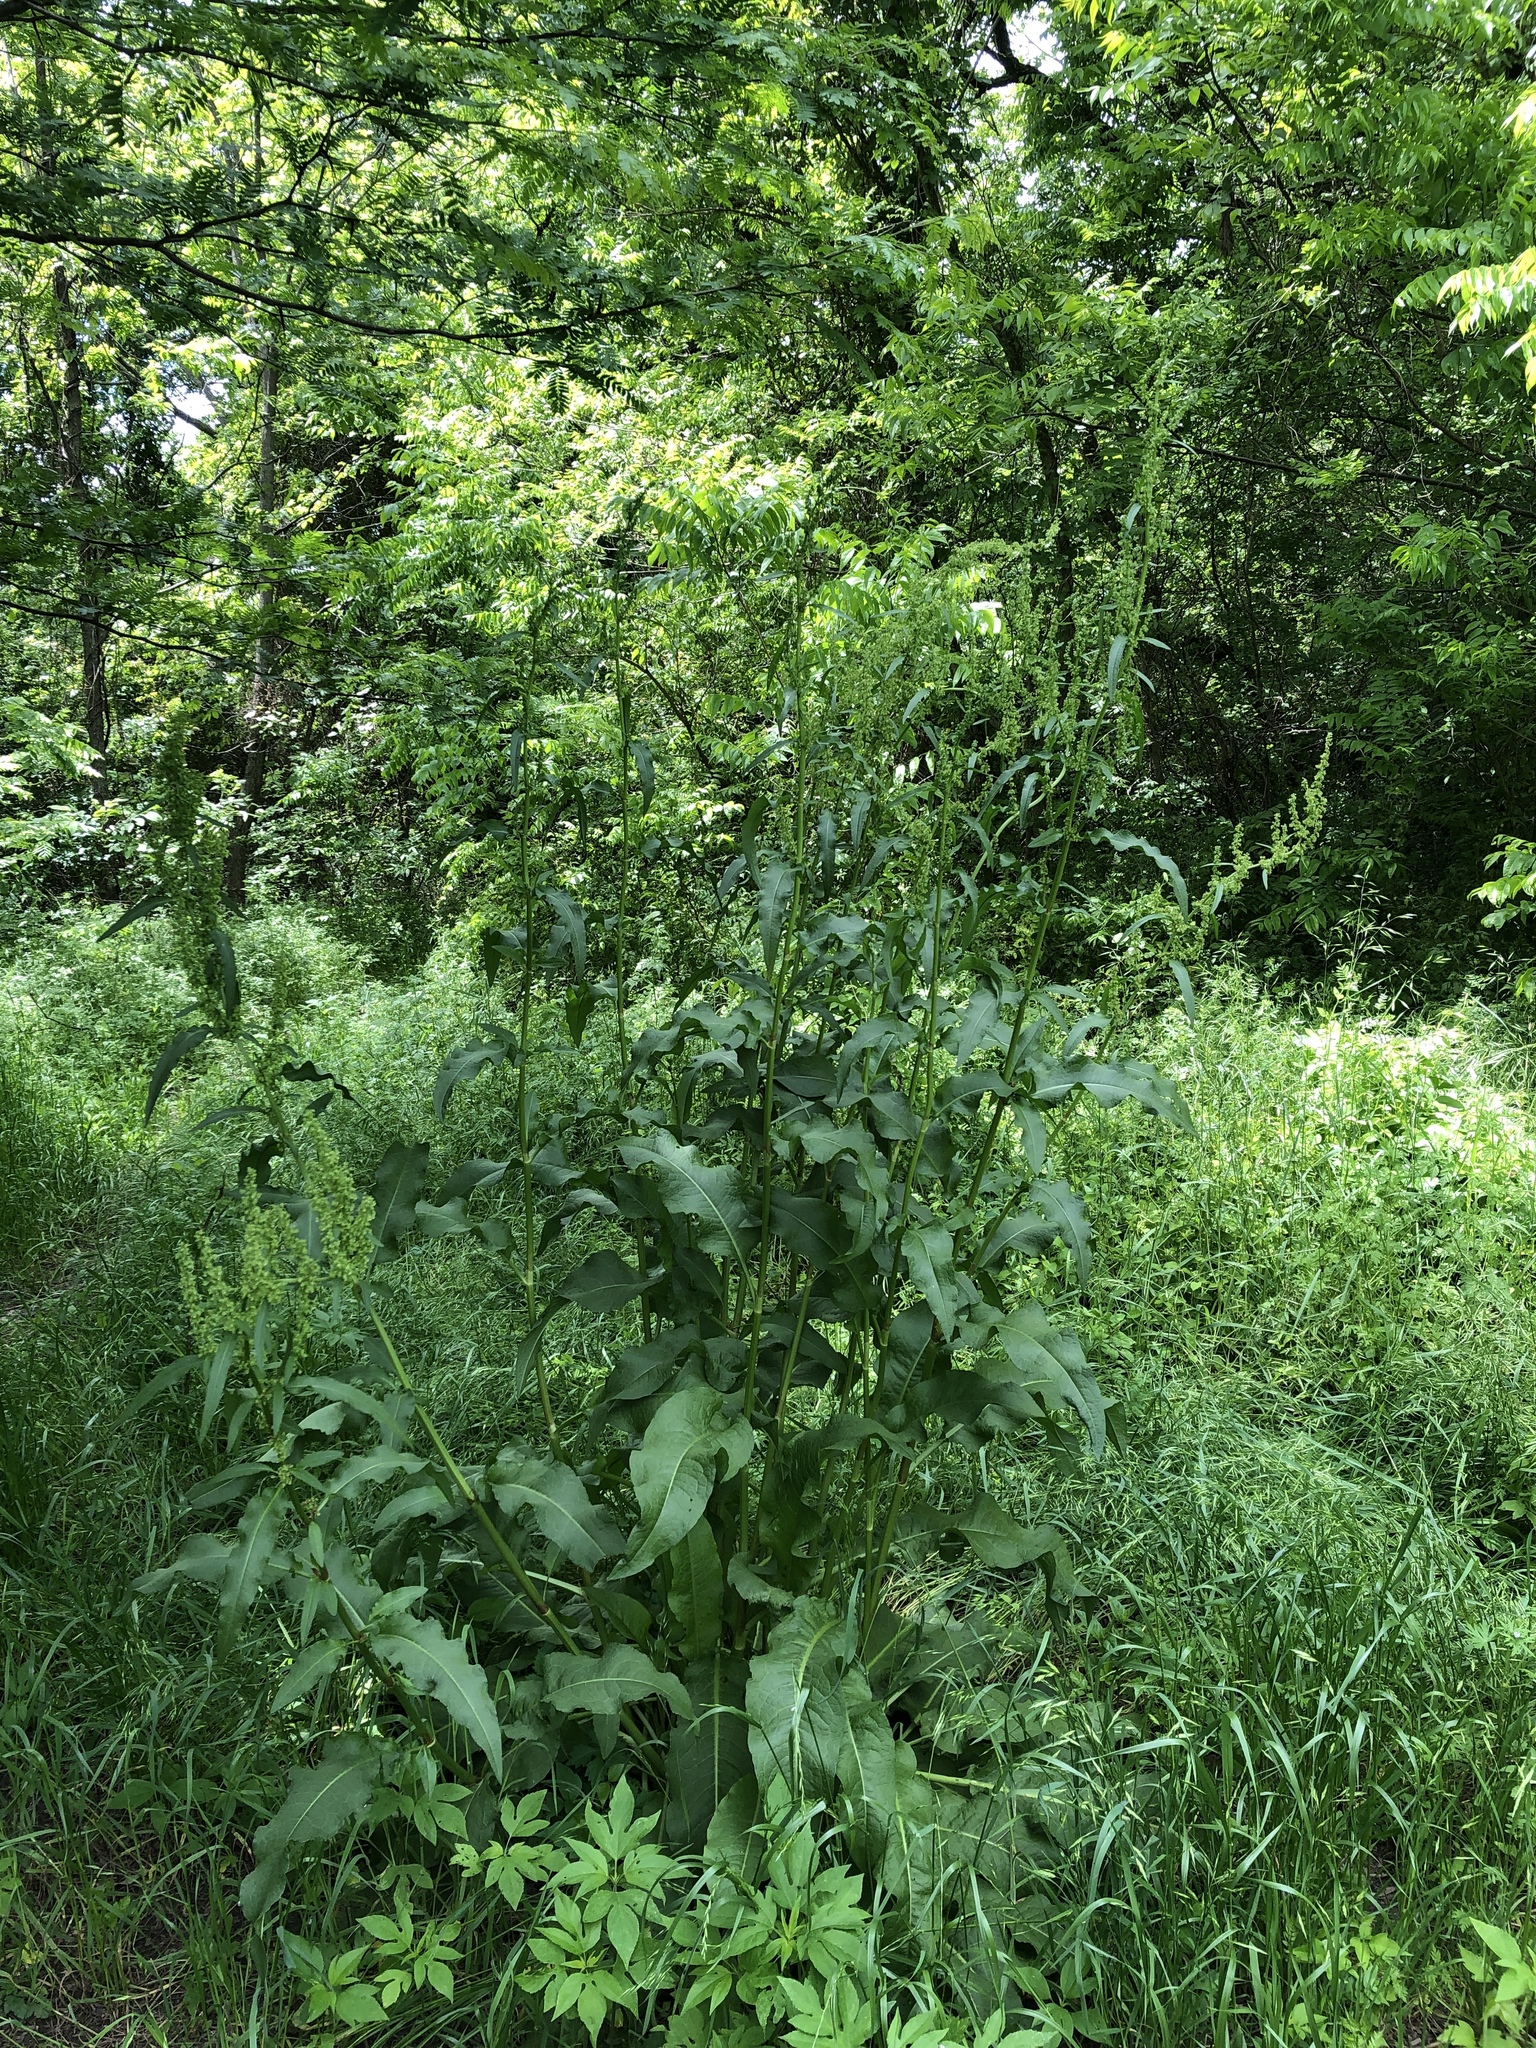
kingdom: Plantae
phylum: Tracheophyta
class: Magnoliopsida
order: Caryophyllales
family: Polygonaceae
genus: Rumex
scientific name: Rumex altissimus
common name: Smooth dock
